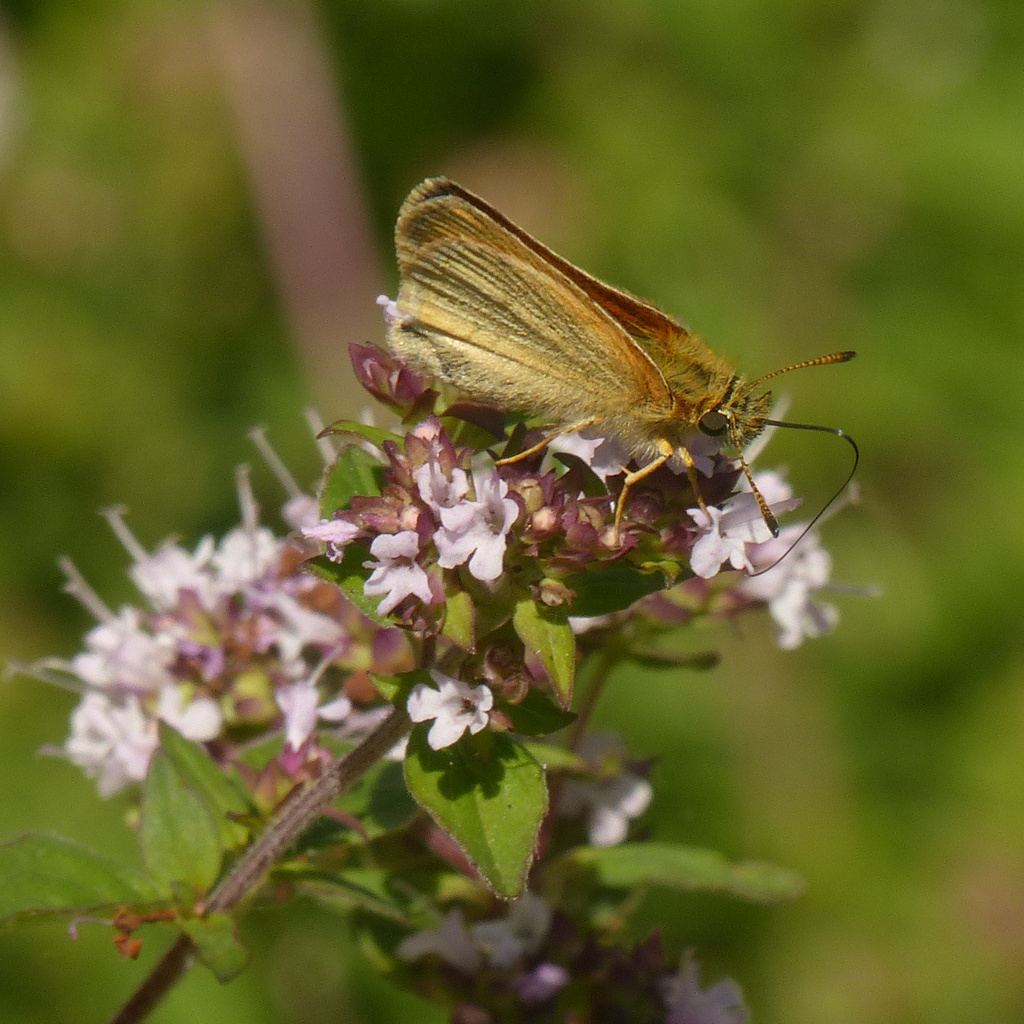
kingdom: Animalia
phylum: Arthropoda
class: Insecta
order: Lepidoptera
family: Hesperiidae
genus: Thymelicus
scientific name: Thymelicus lineola
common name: Essex skipper
